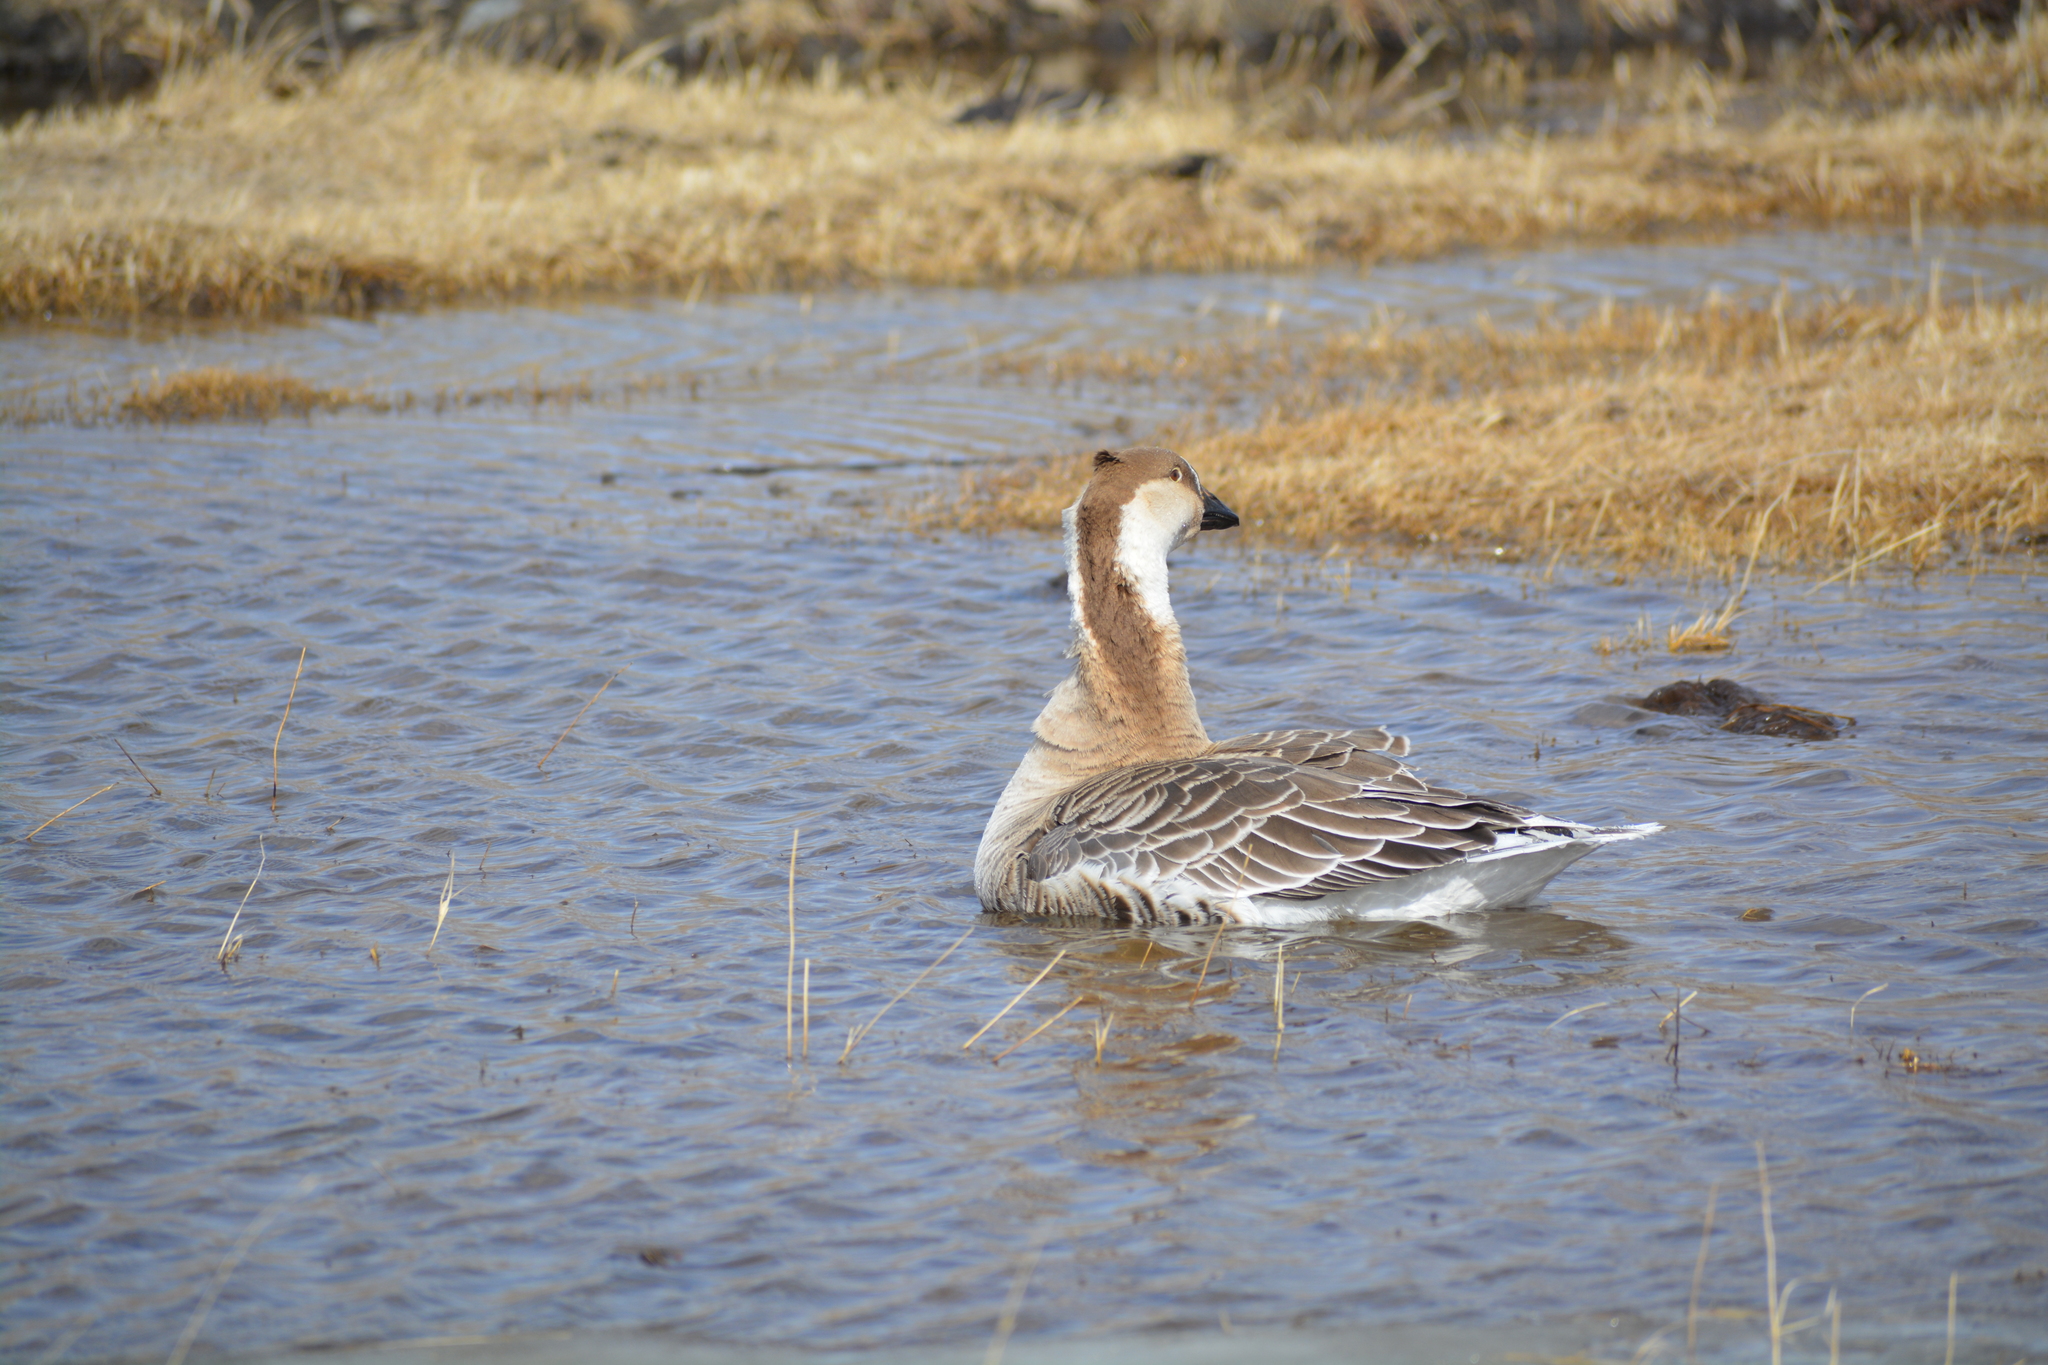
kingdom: Animalia
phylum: Chordata
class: Aves
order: Anseriformes
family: Anatidae
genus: Anser
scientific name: Anser cygnoides
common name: Swan goose
